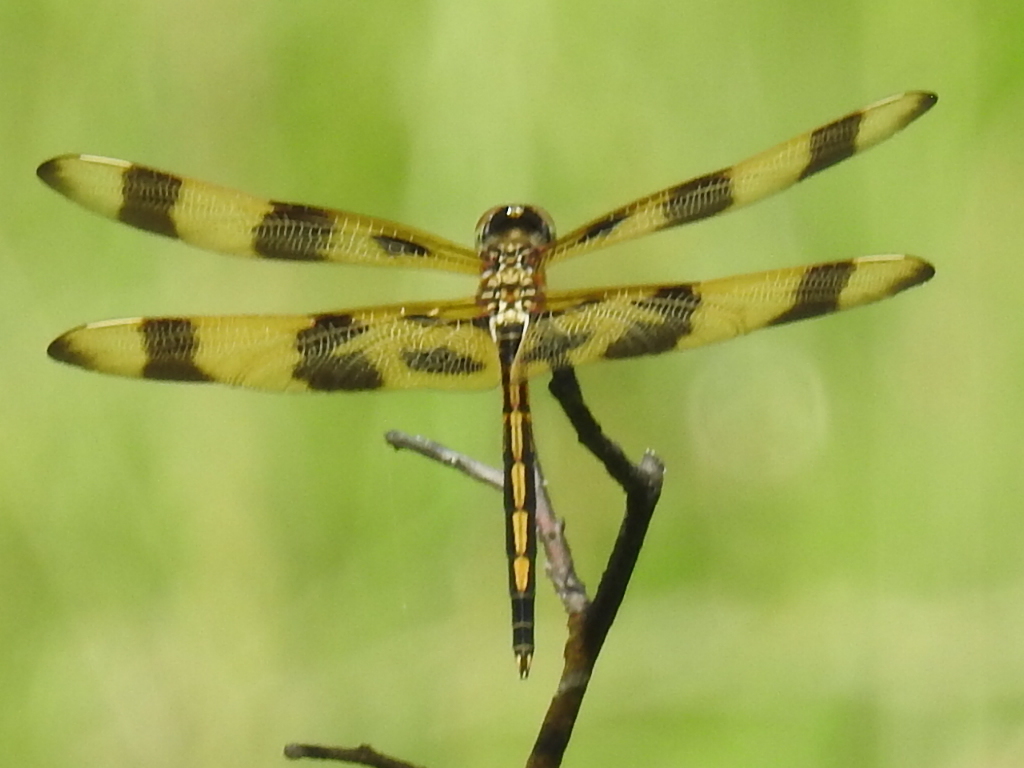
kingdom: Animalia
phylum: Arthropoda
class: Insecta
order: Odonata
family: Libellulidae
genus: Celithemis
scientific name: Celithemis eponina
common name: Halloween pennant
